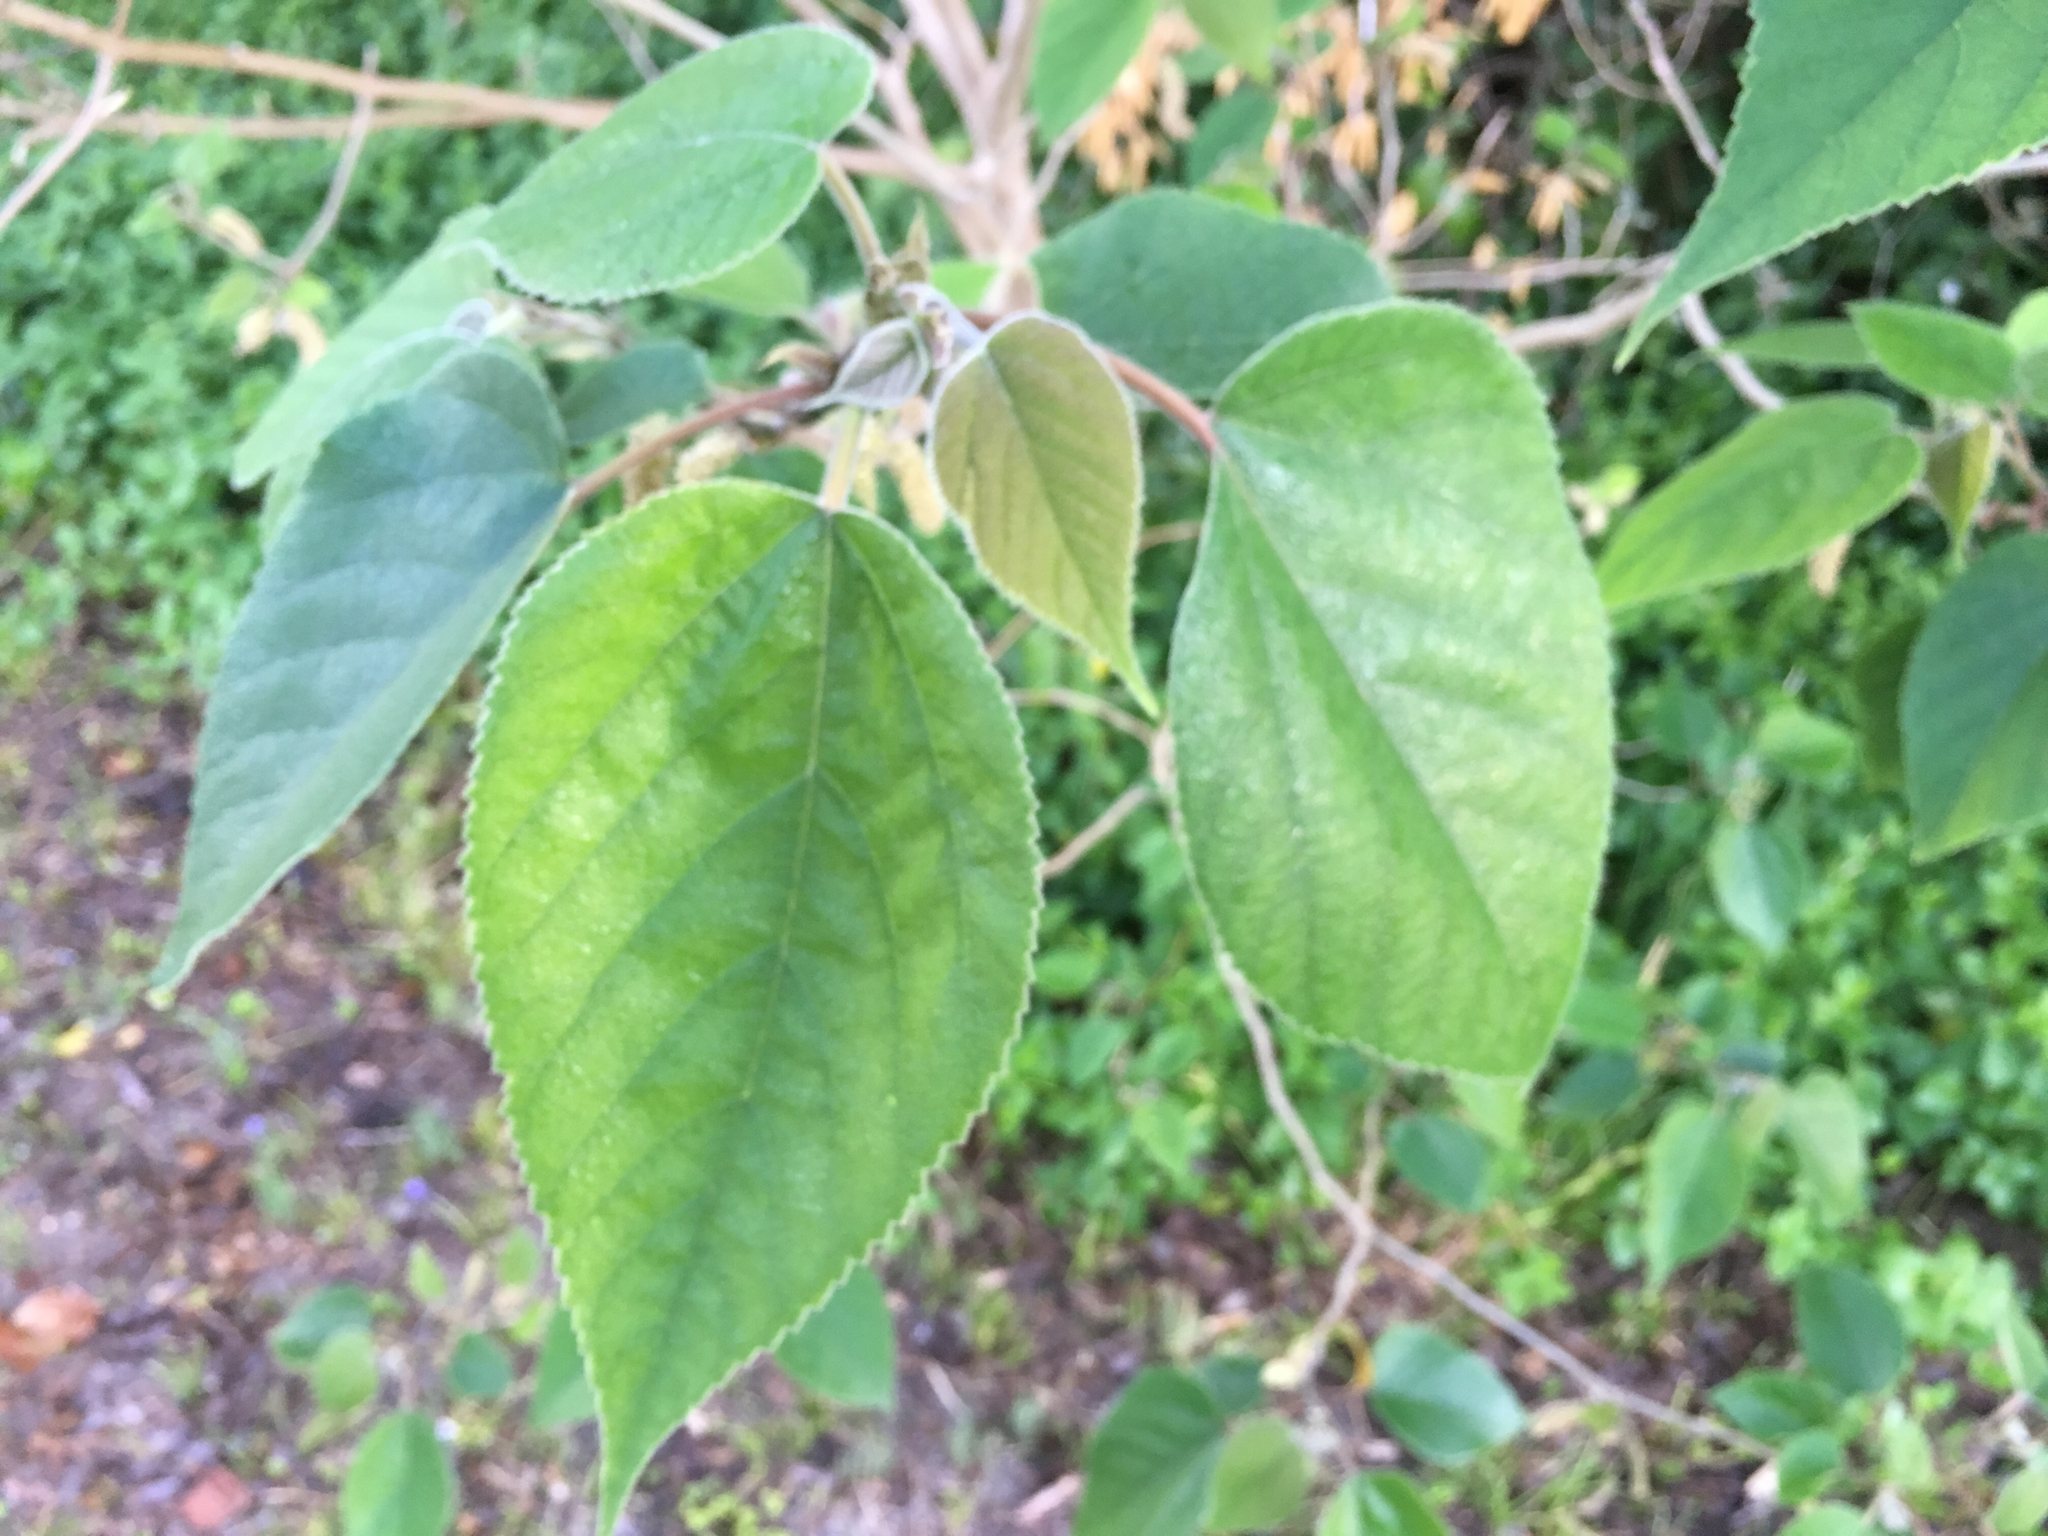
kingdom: Plantae
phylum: Tracheophyta
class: Magnoliopsida
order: Rosales
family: Moraceae
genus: Broussonetia
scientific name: Broussonetia papyrifera
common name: Paper mulberry
